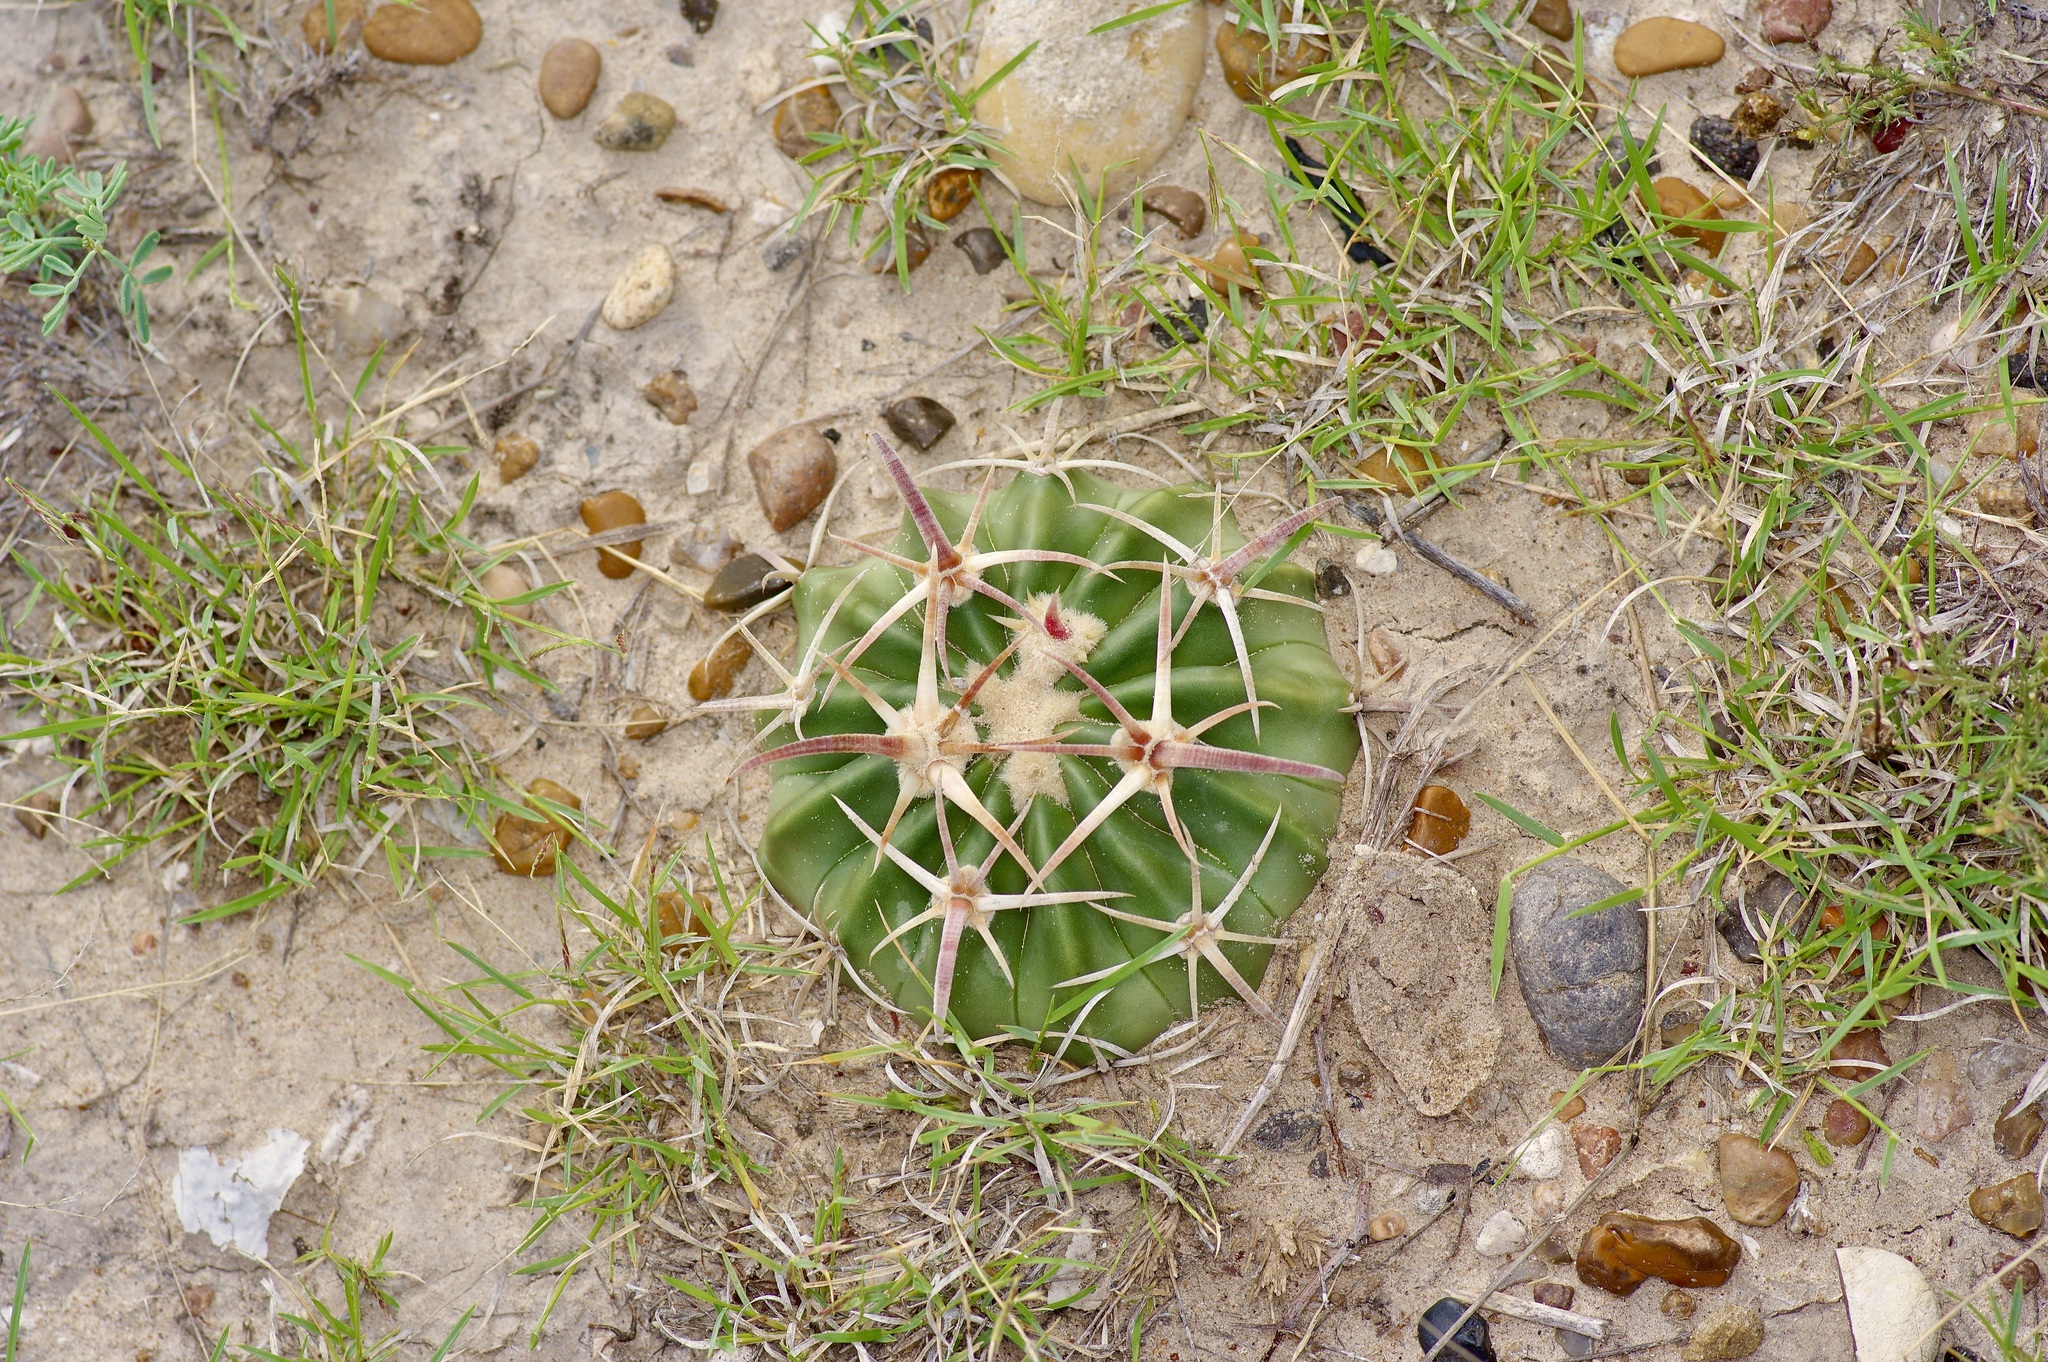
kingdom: Plantae
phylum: Tracheophyta
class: Magnoliopsida
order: Caryophyllales
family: Cactaceae
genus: Echinocactus
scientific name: Echinocactus texensis
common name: Devil's pincushion
